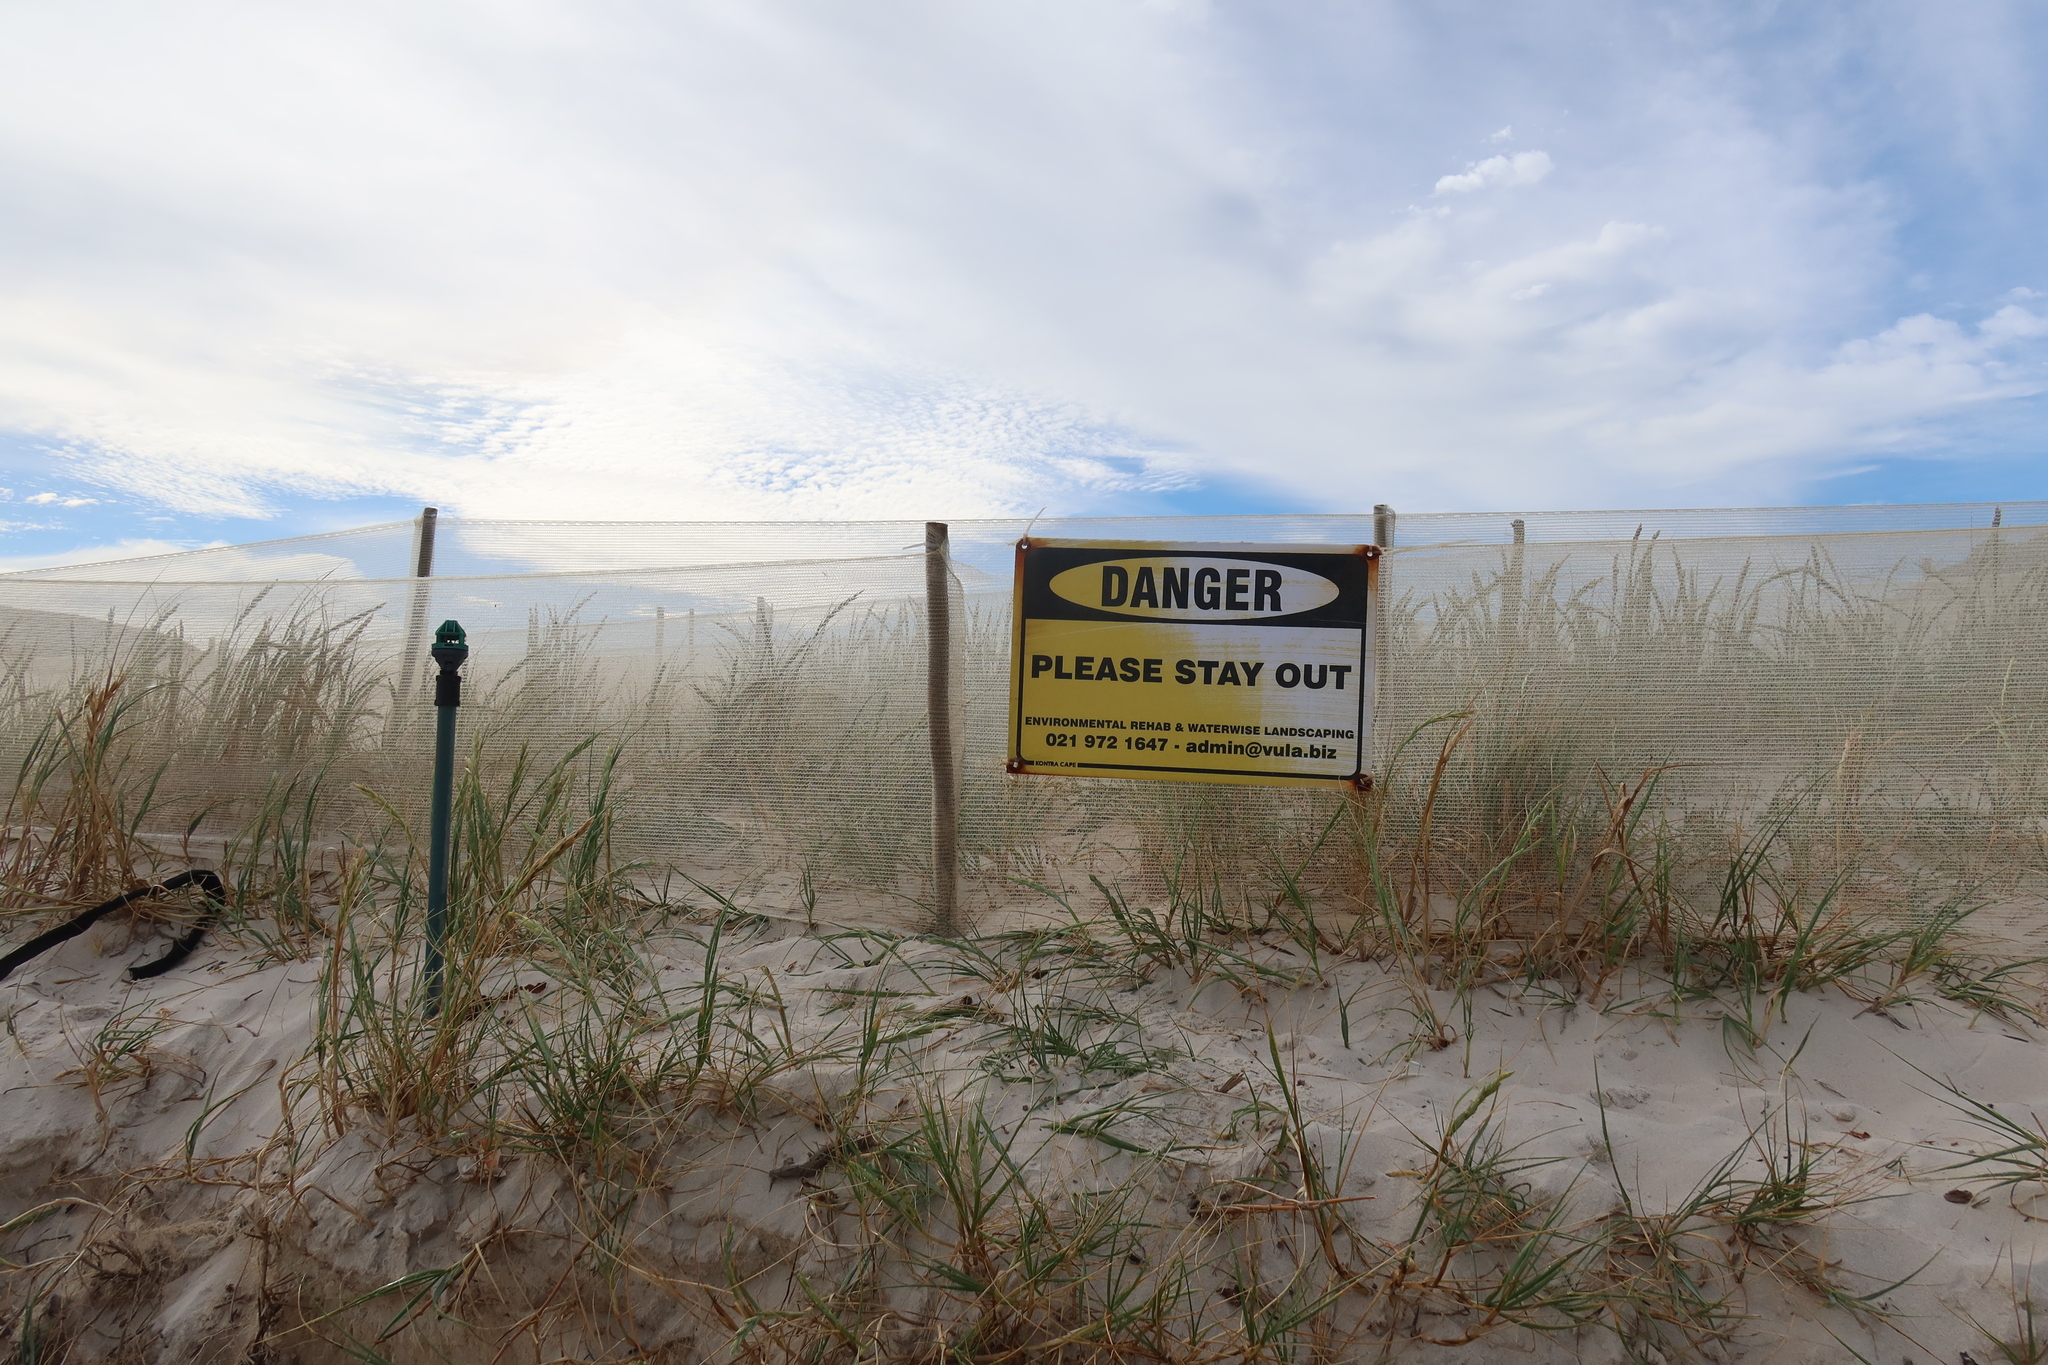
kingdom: Plantae
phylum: Tracheophyta
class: Liliopsida
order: Poales
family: Poaceae
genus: Thinopyrum
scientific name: Thinopyrum distichum
